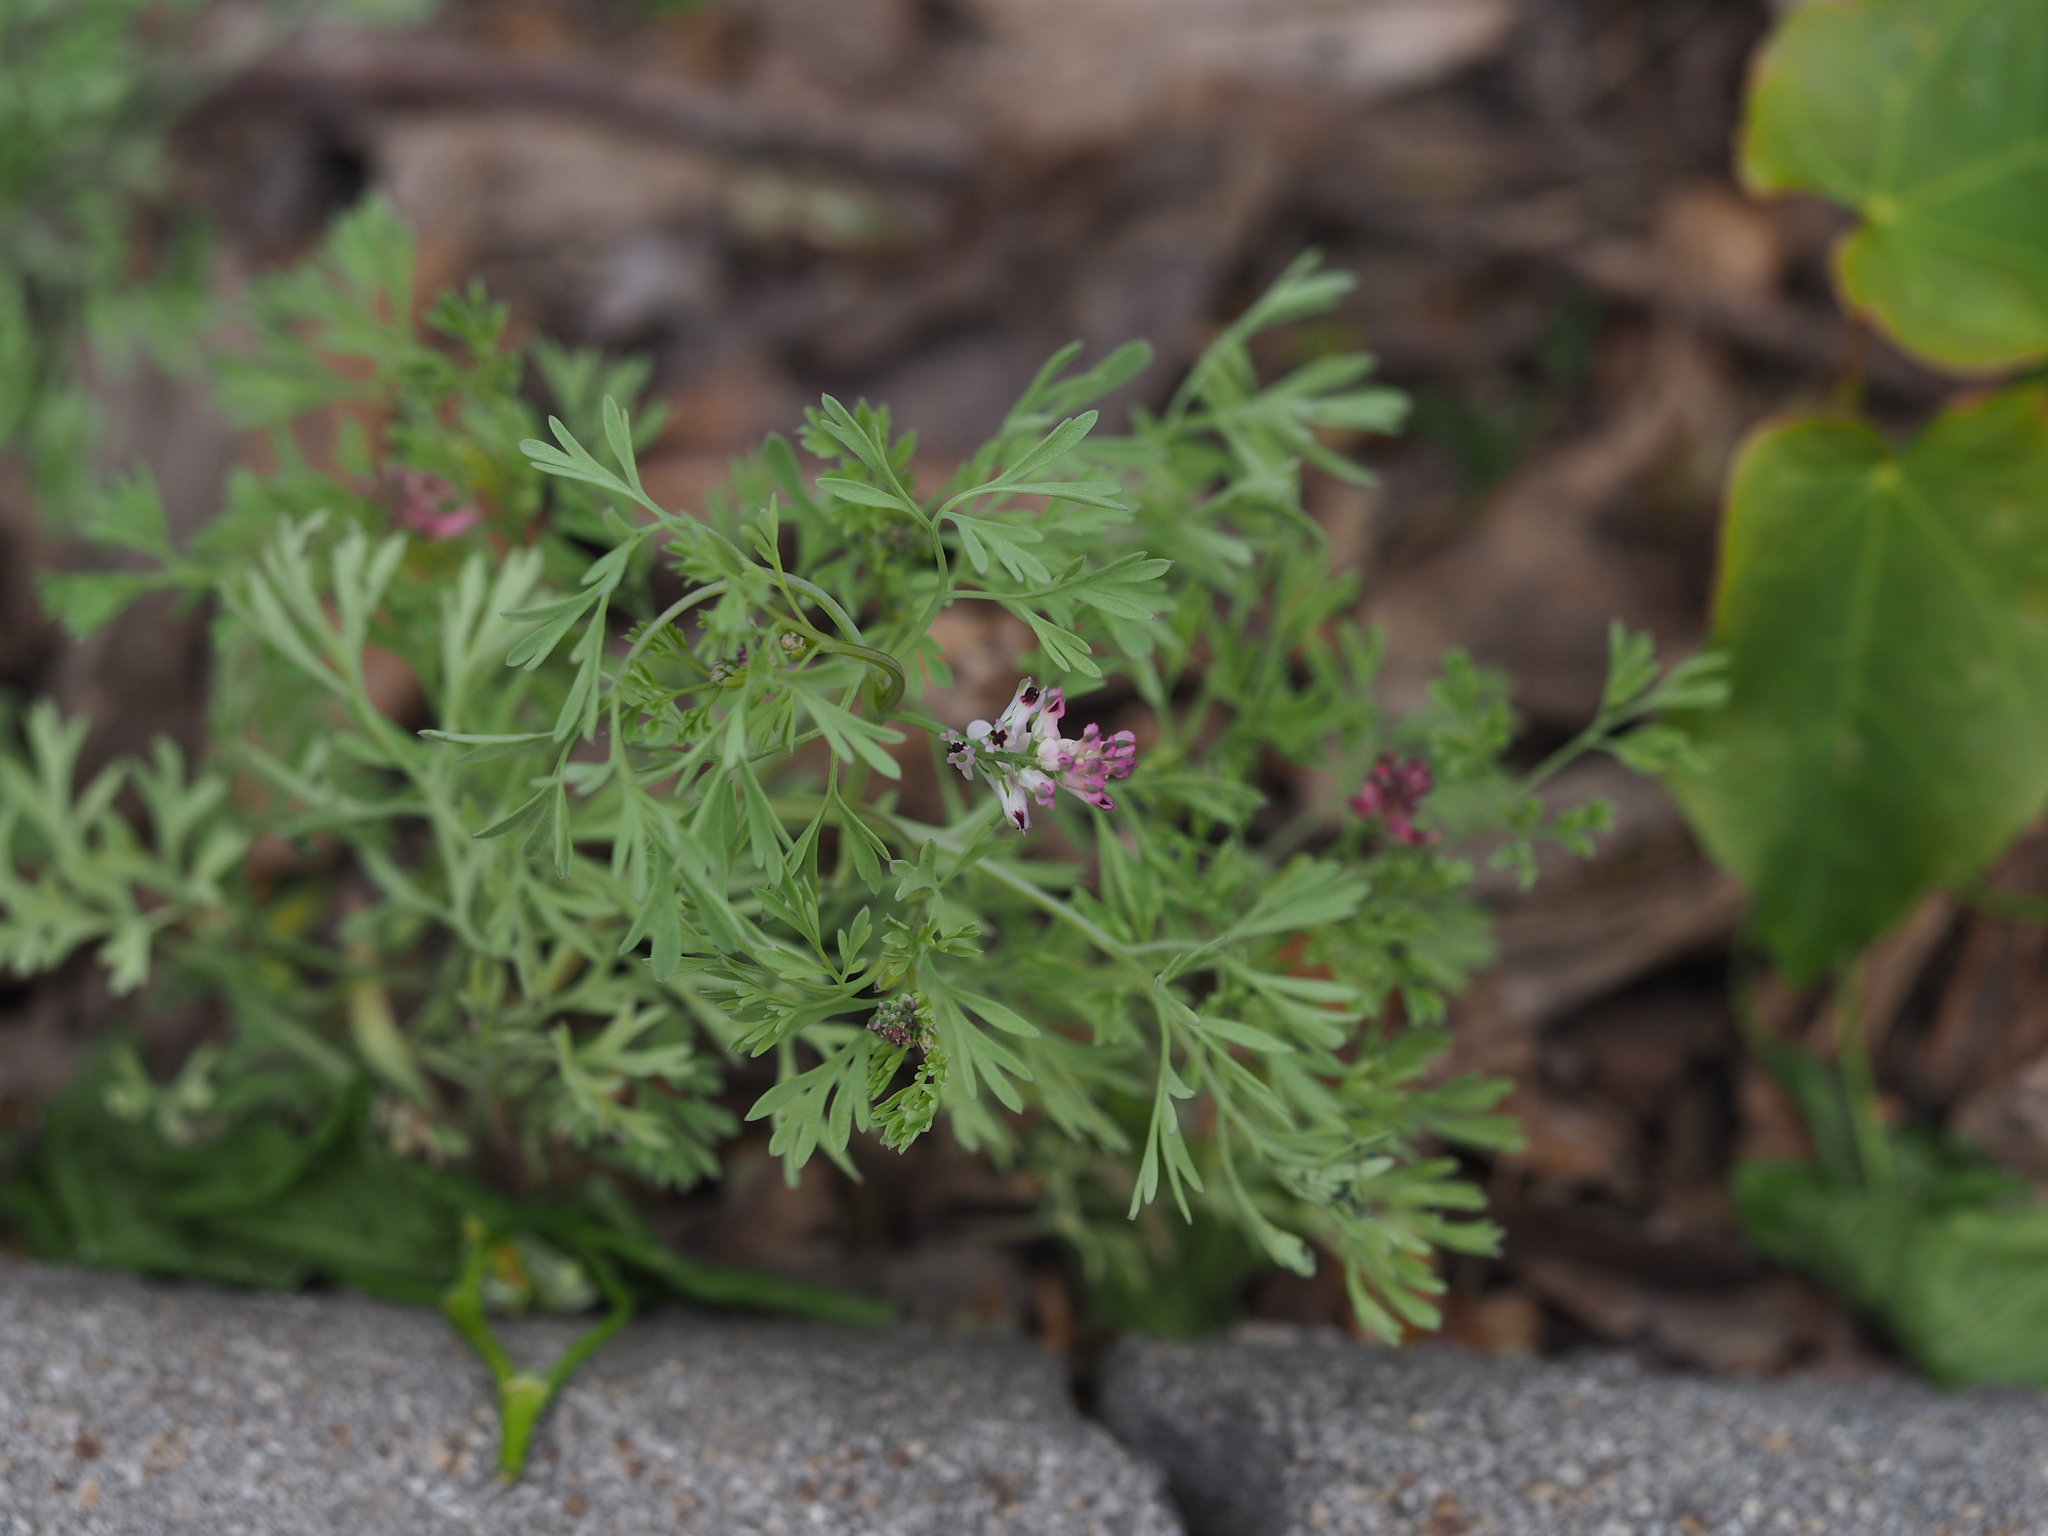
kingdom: Plantae
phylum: Tracheophyta
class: Magnoliopsida
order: Ranunculales
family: Papaveraceae
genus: Fumaria
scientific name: Fumaria vaillantii
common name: Few-flowered fumitory
